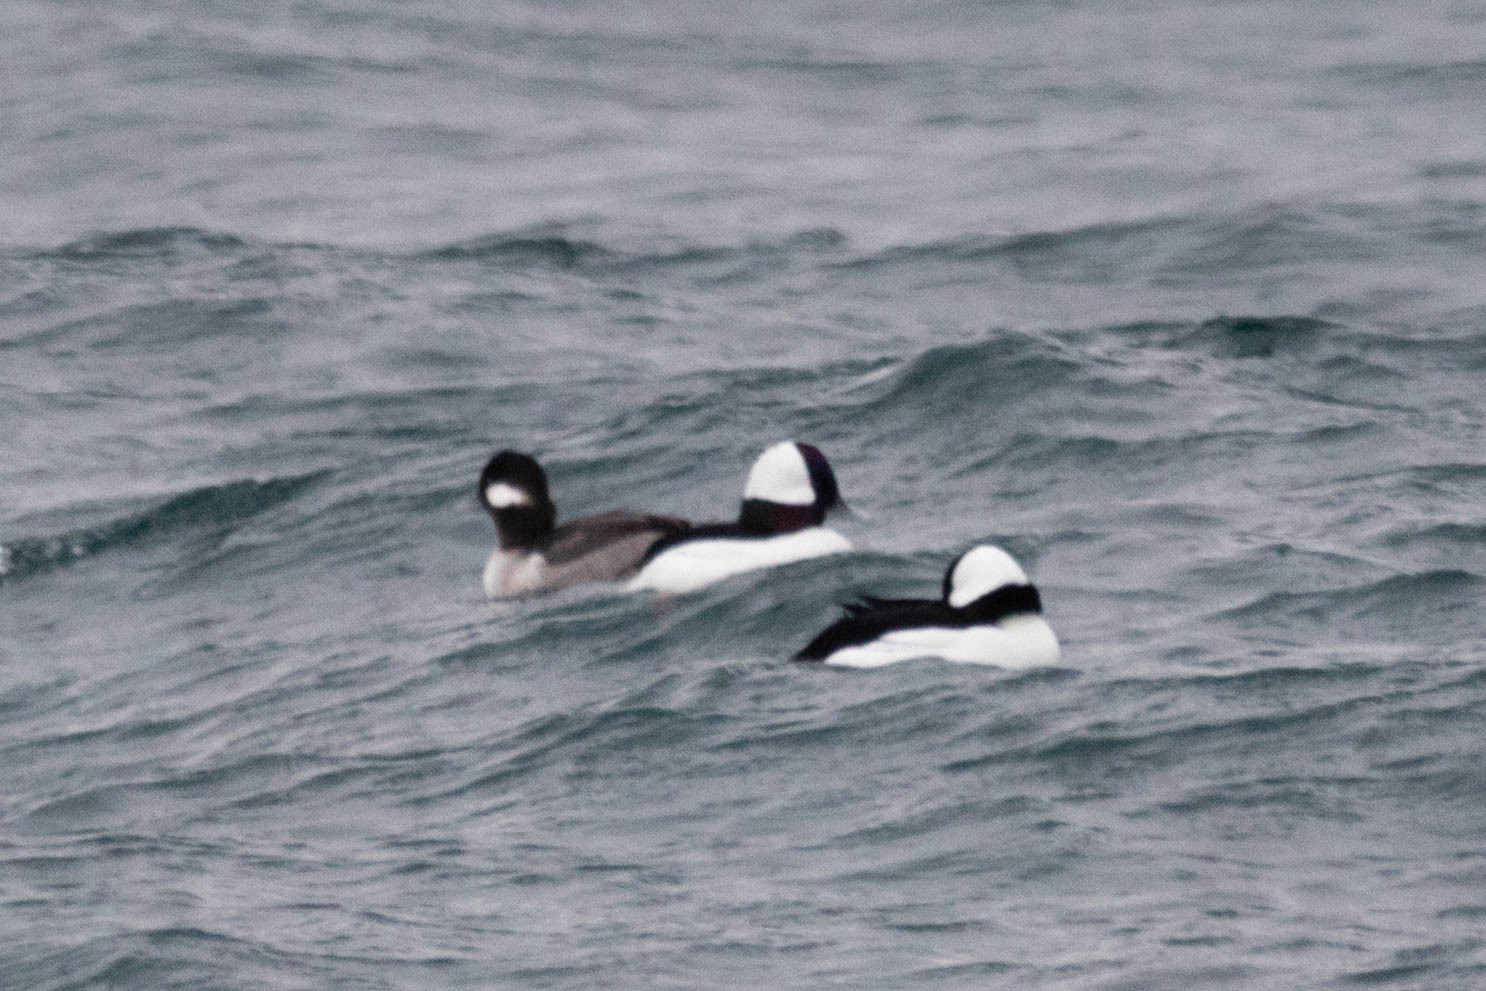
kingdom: Animalia
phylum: Chordata
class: Aves
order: Anseriformes
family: Anatidae
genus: Bucephala
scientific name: Bucephala albeola
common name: Bufflehead
